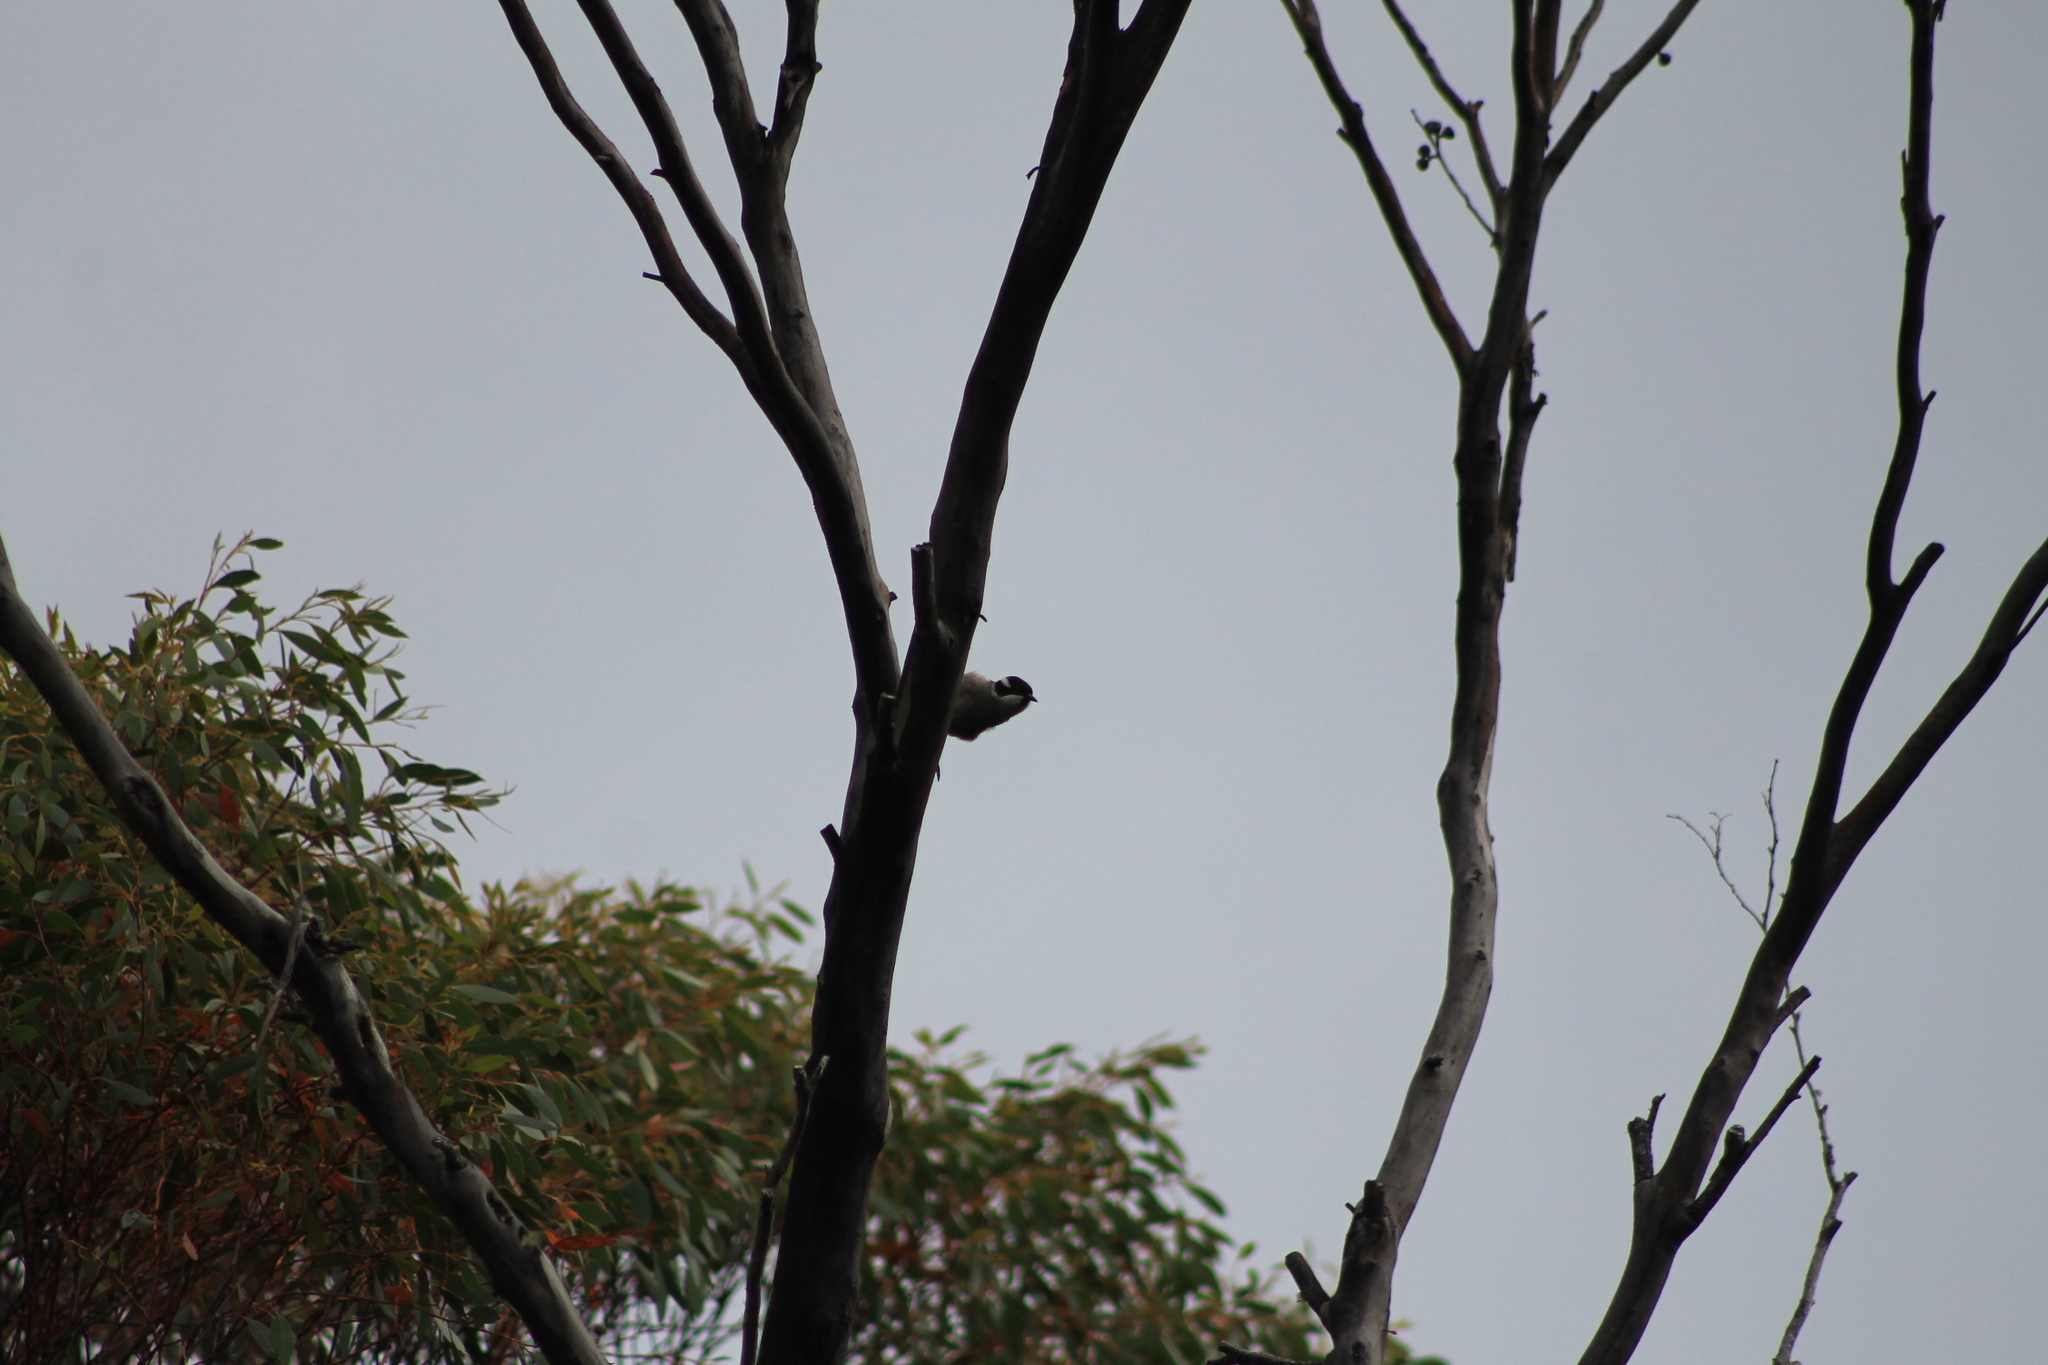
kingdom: Animalia
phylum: Chordata
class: Aves
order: Passeriformes
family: Meliphagidae
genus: Melithreptus
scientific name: Melithreptus validirostris
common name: Strong-billed honeyeater
